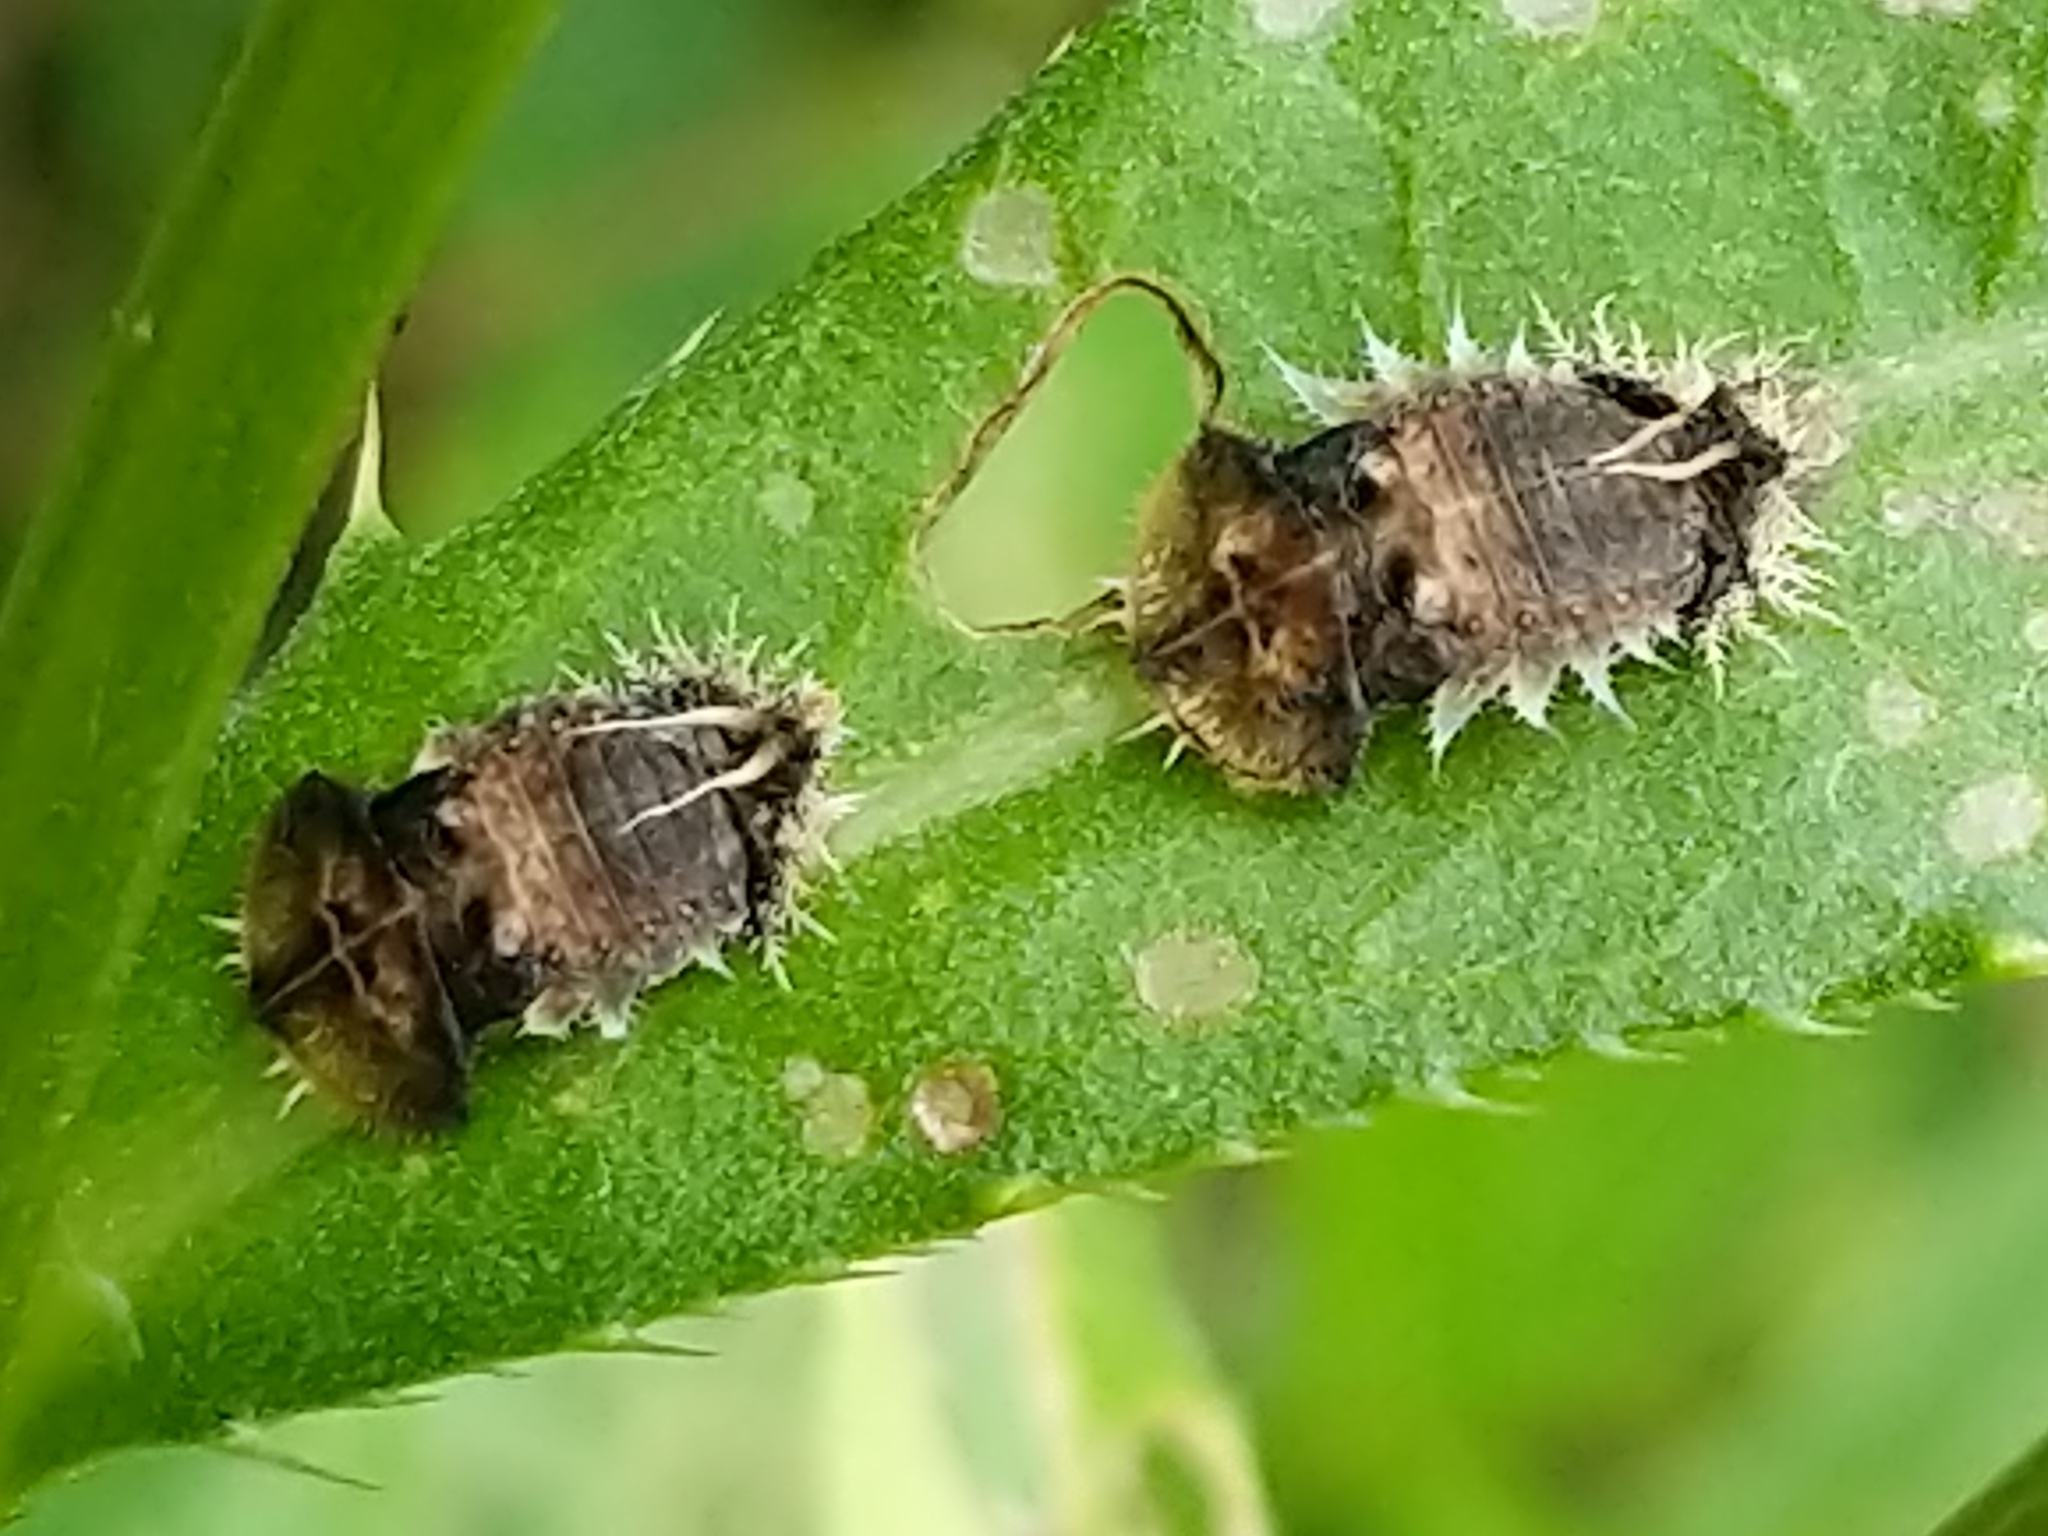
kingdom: Animalia
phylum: Arthropoda
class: Insecta
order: Coleoptera
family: Chrysomelidae
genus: Cassida
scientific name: Cassida rubiginosa
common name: Thistle tortoise beetle
